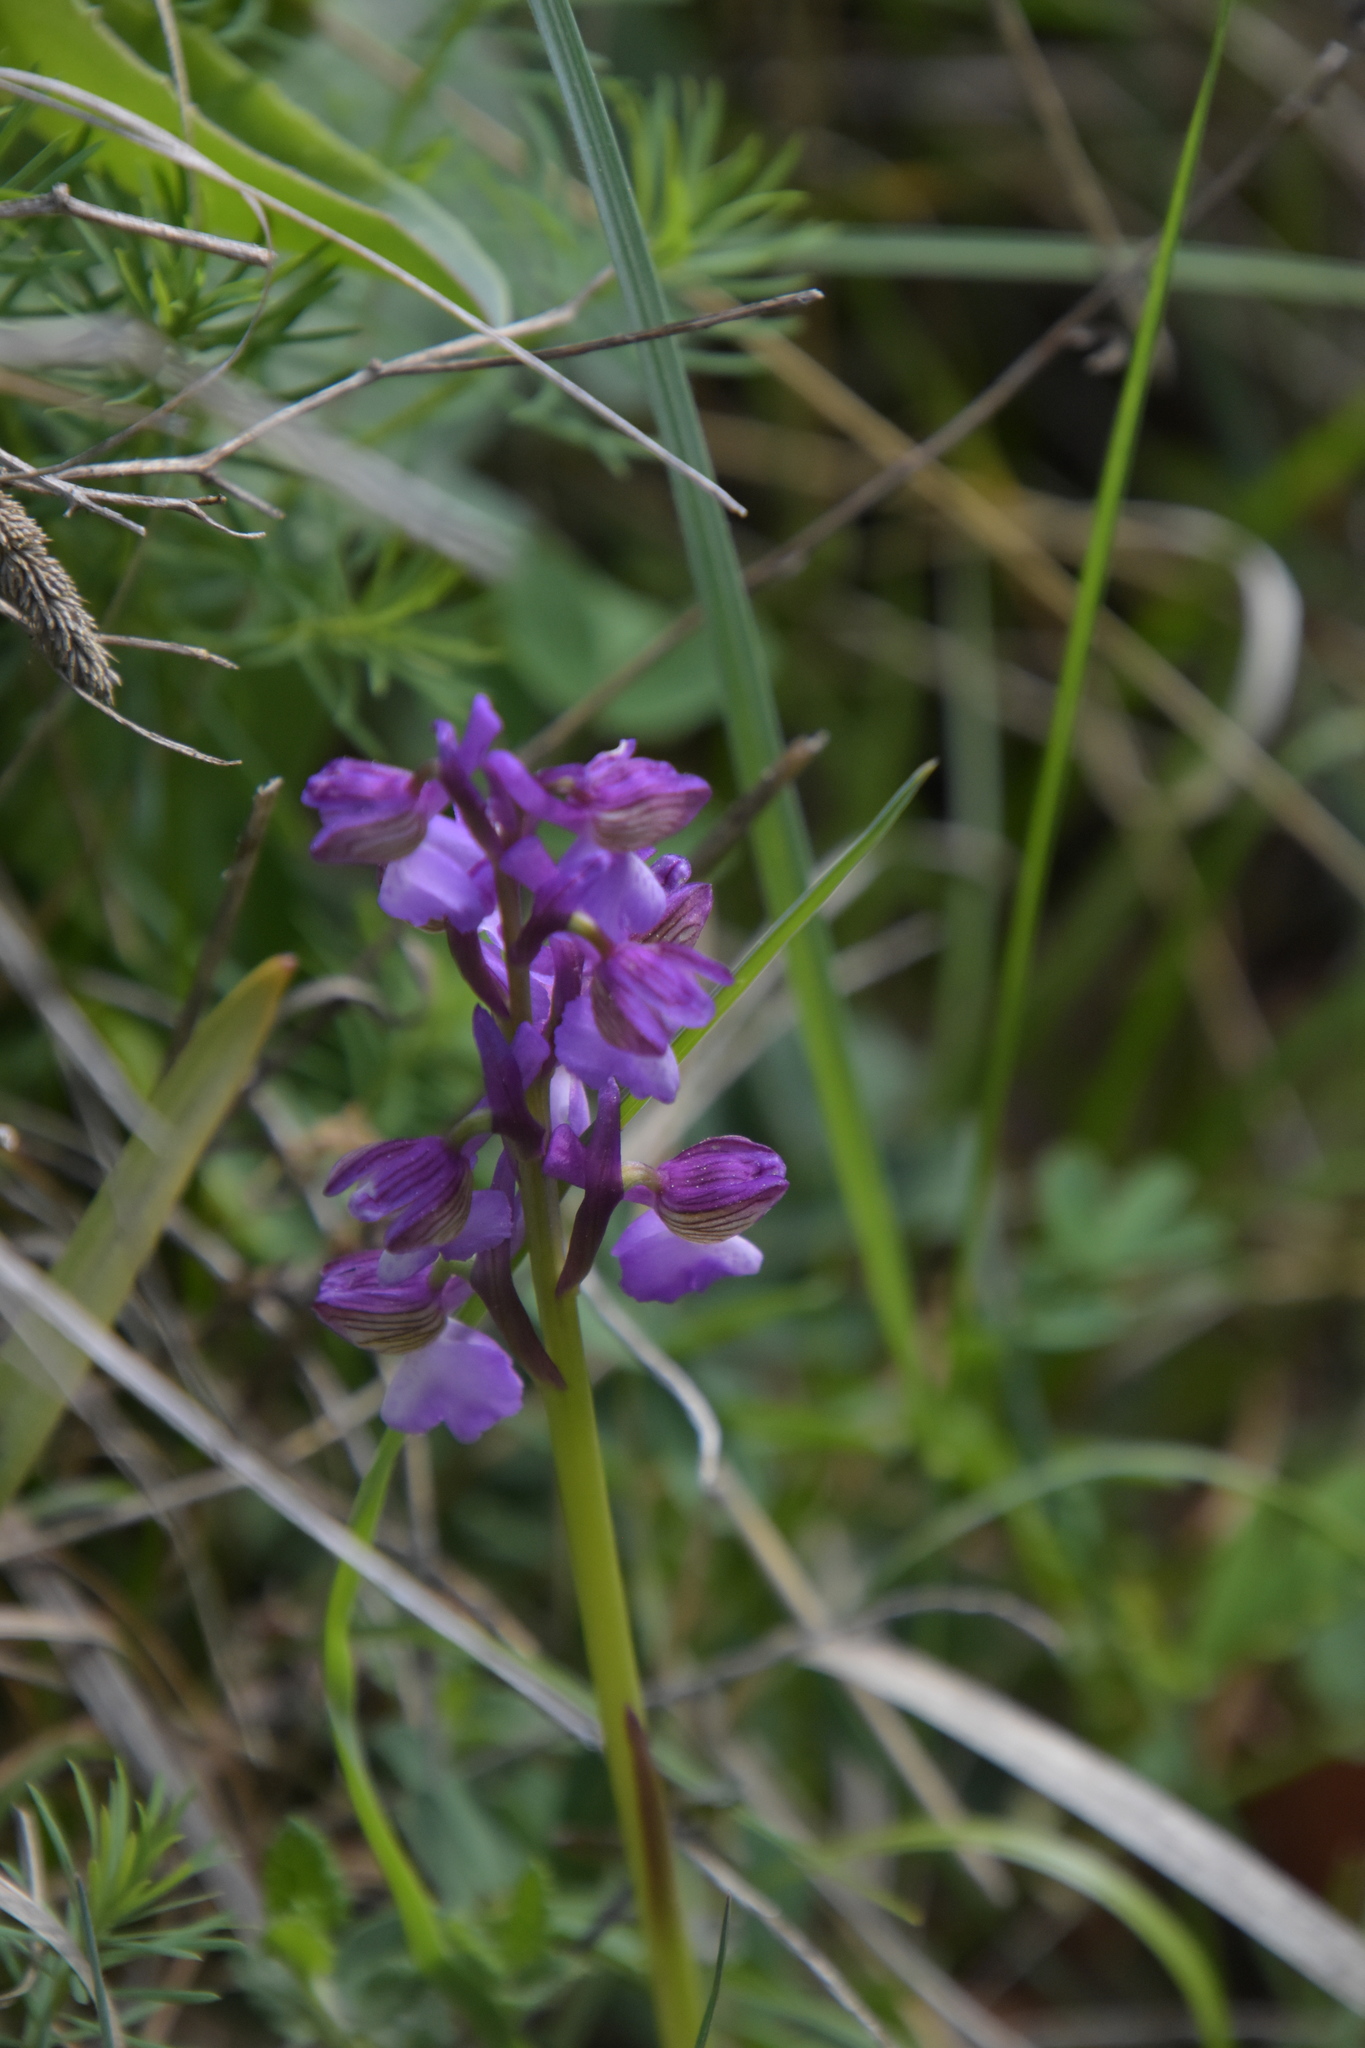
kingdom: Plantae
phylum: Tracheophyta
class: Liliopsida
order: Asparagales
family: Orchidaceae
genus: Anacamptis
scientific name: Anacamptis morio
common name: Green-winged orchid
